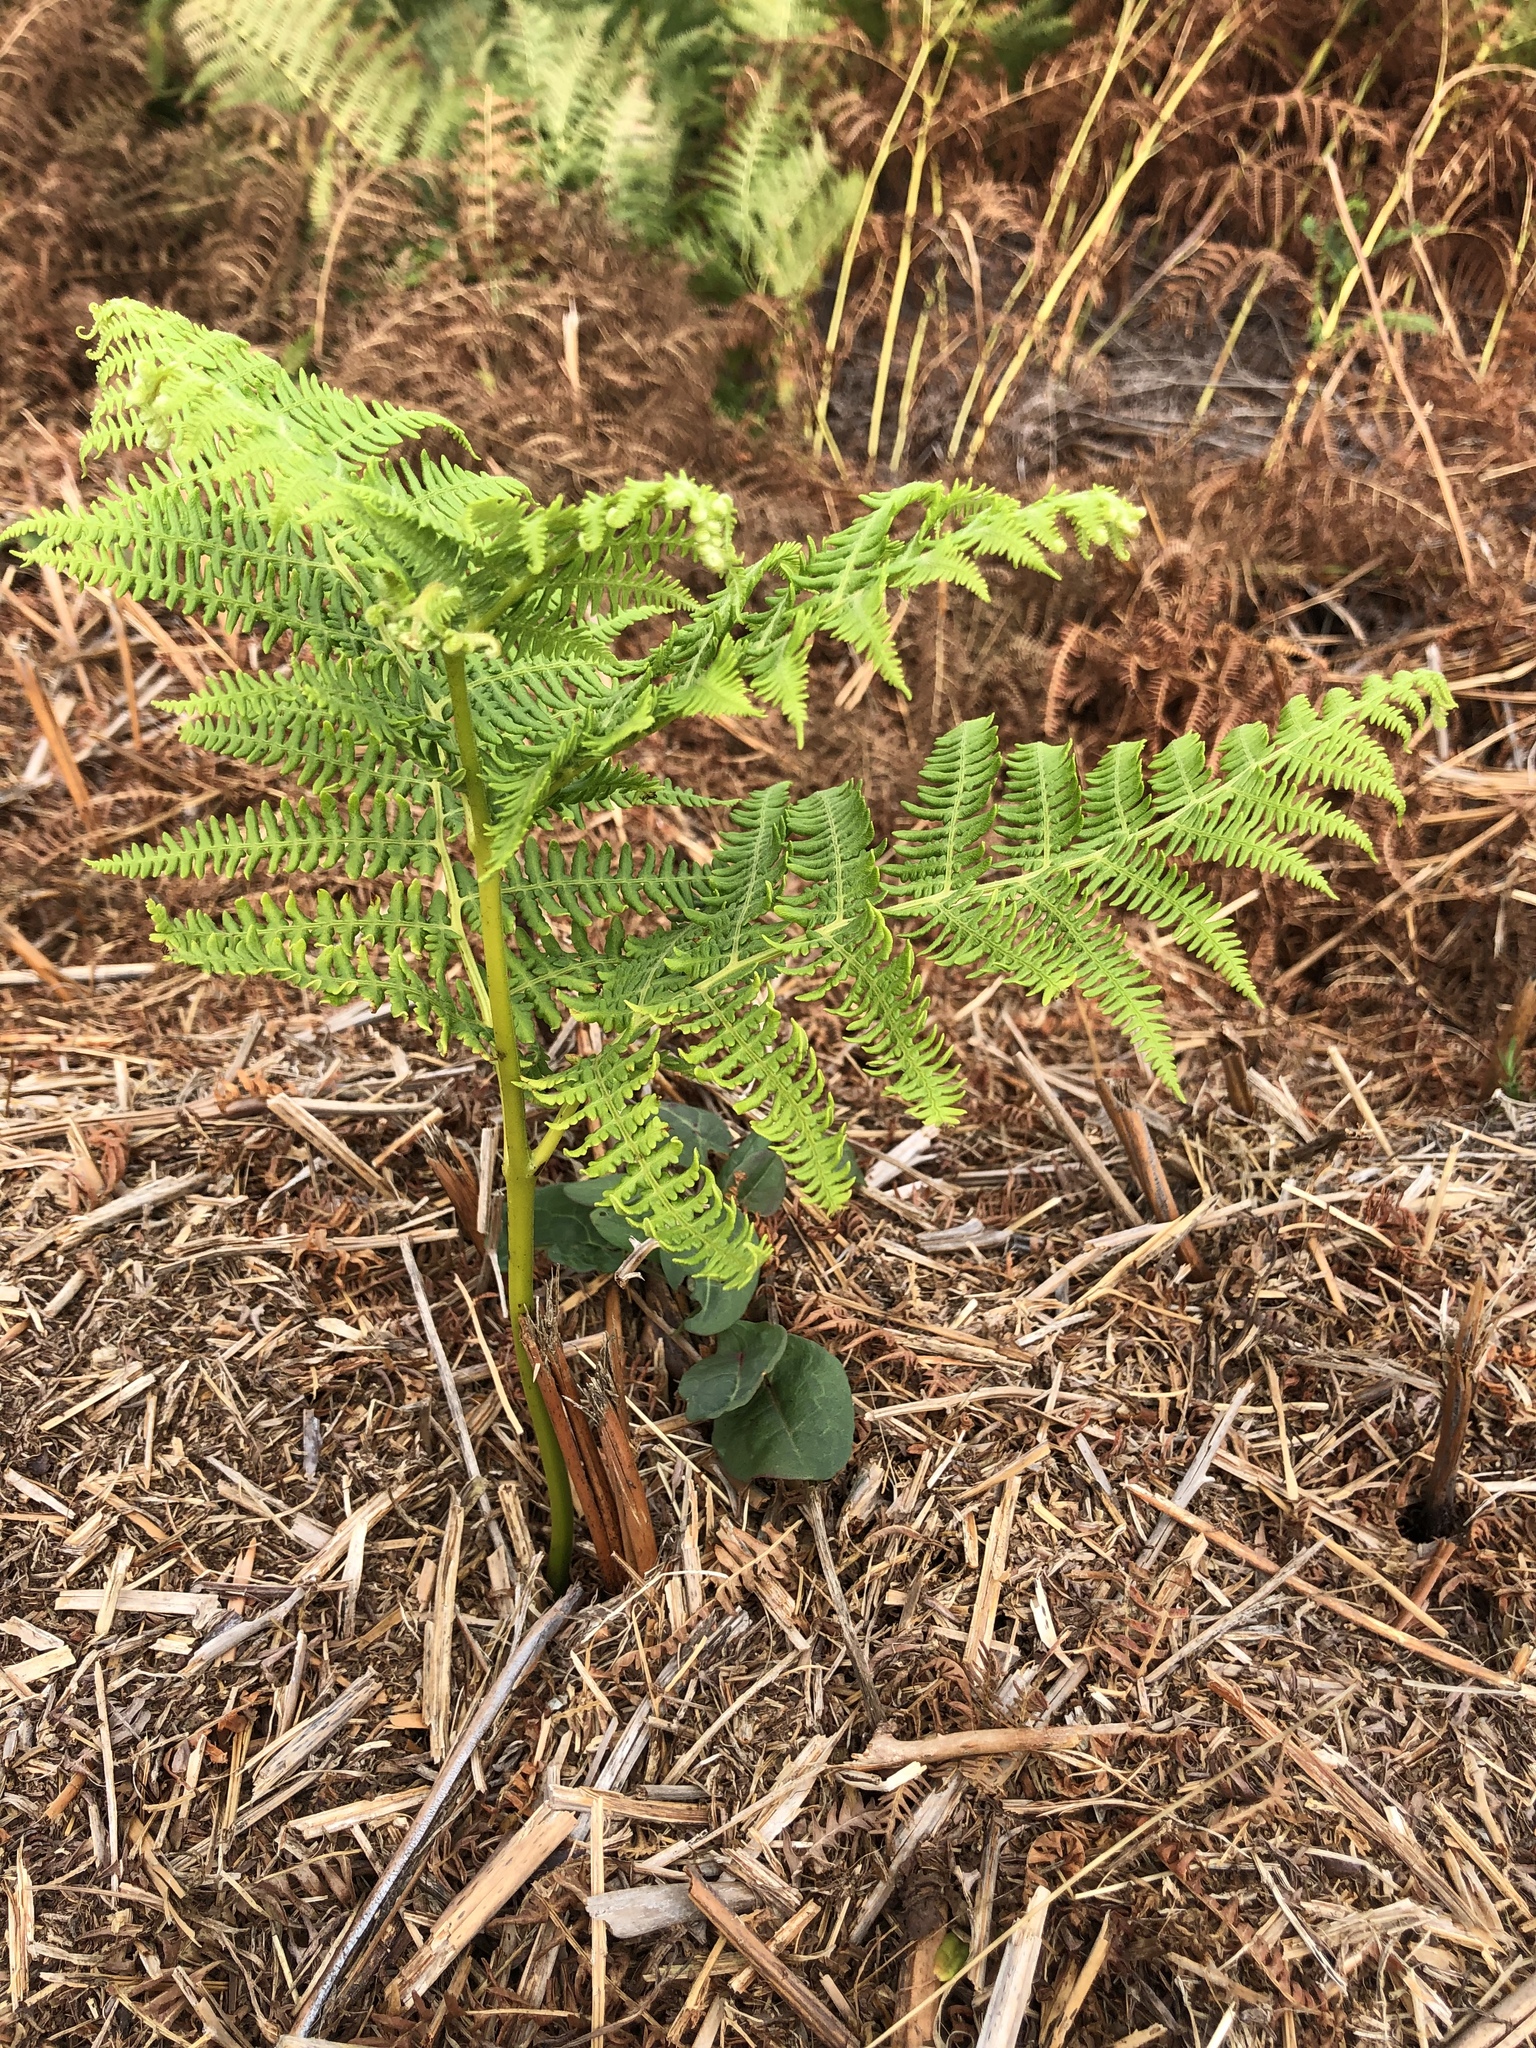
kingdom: Plantae
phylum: Tracheophyta
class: Polypodiopsida
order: Polypodiales
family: Dennstaedtiaceae
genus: Pteridium
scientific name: Pteridium aquilinum
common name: Bracken
